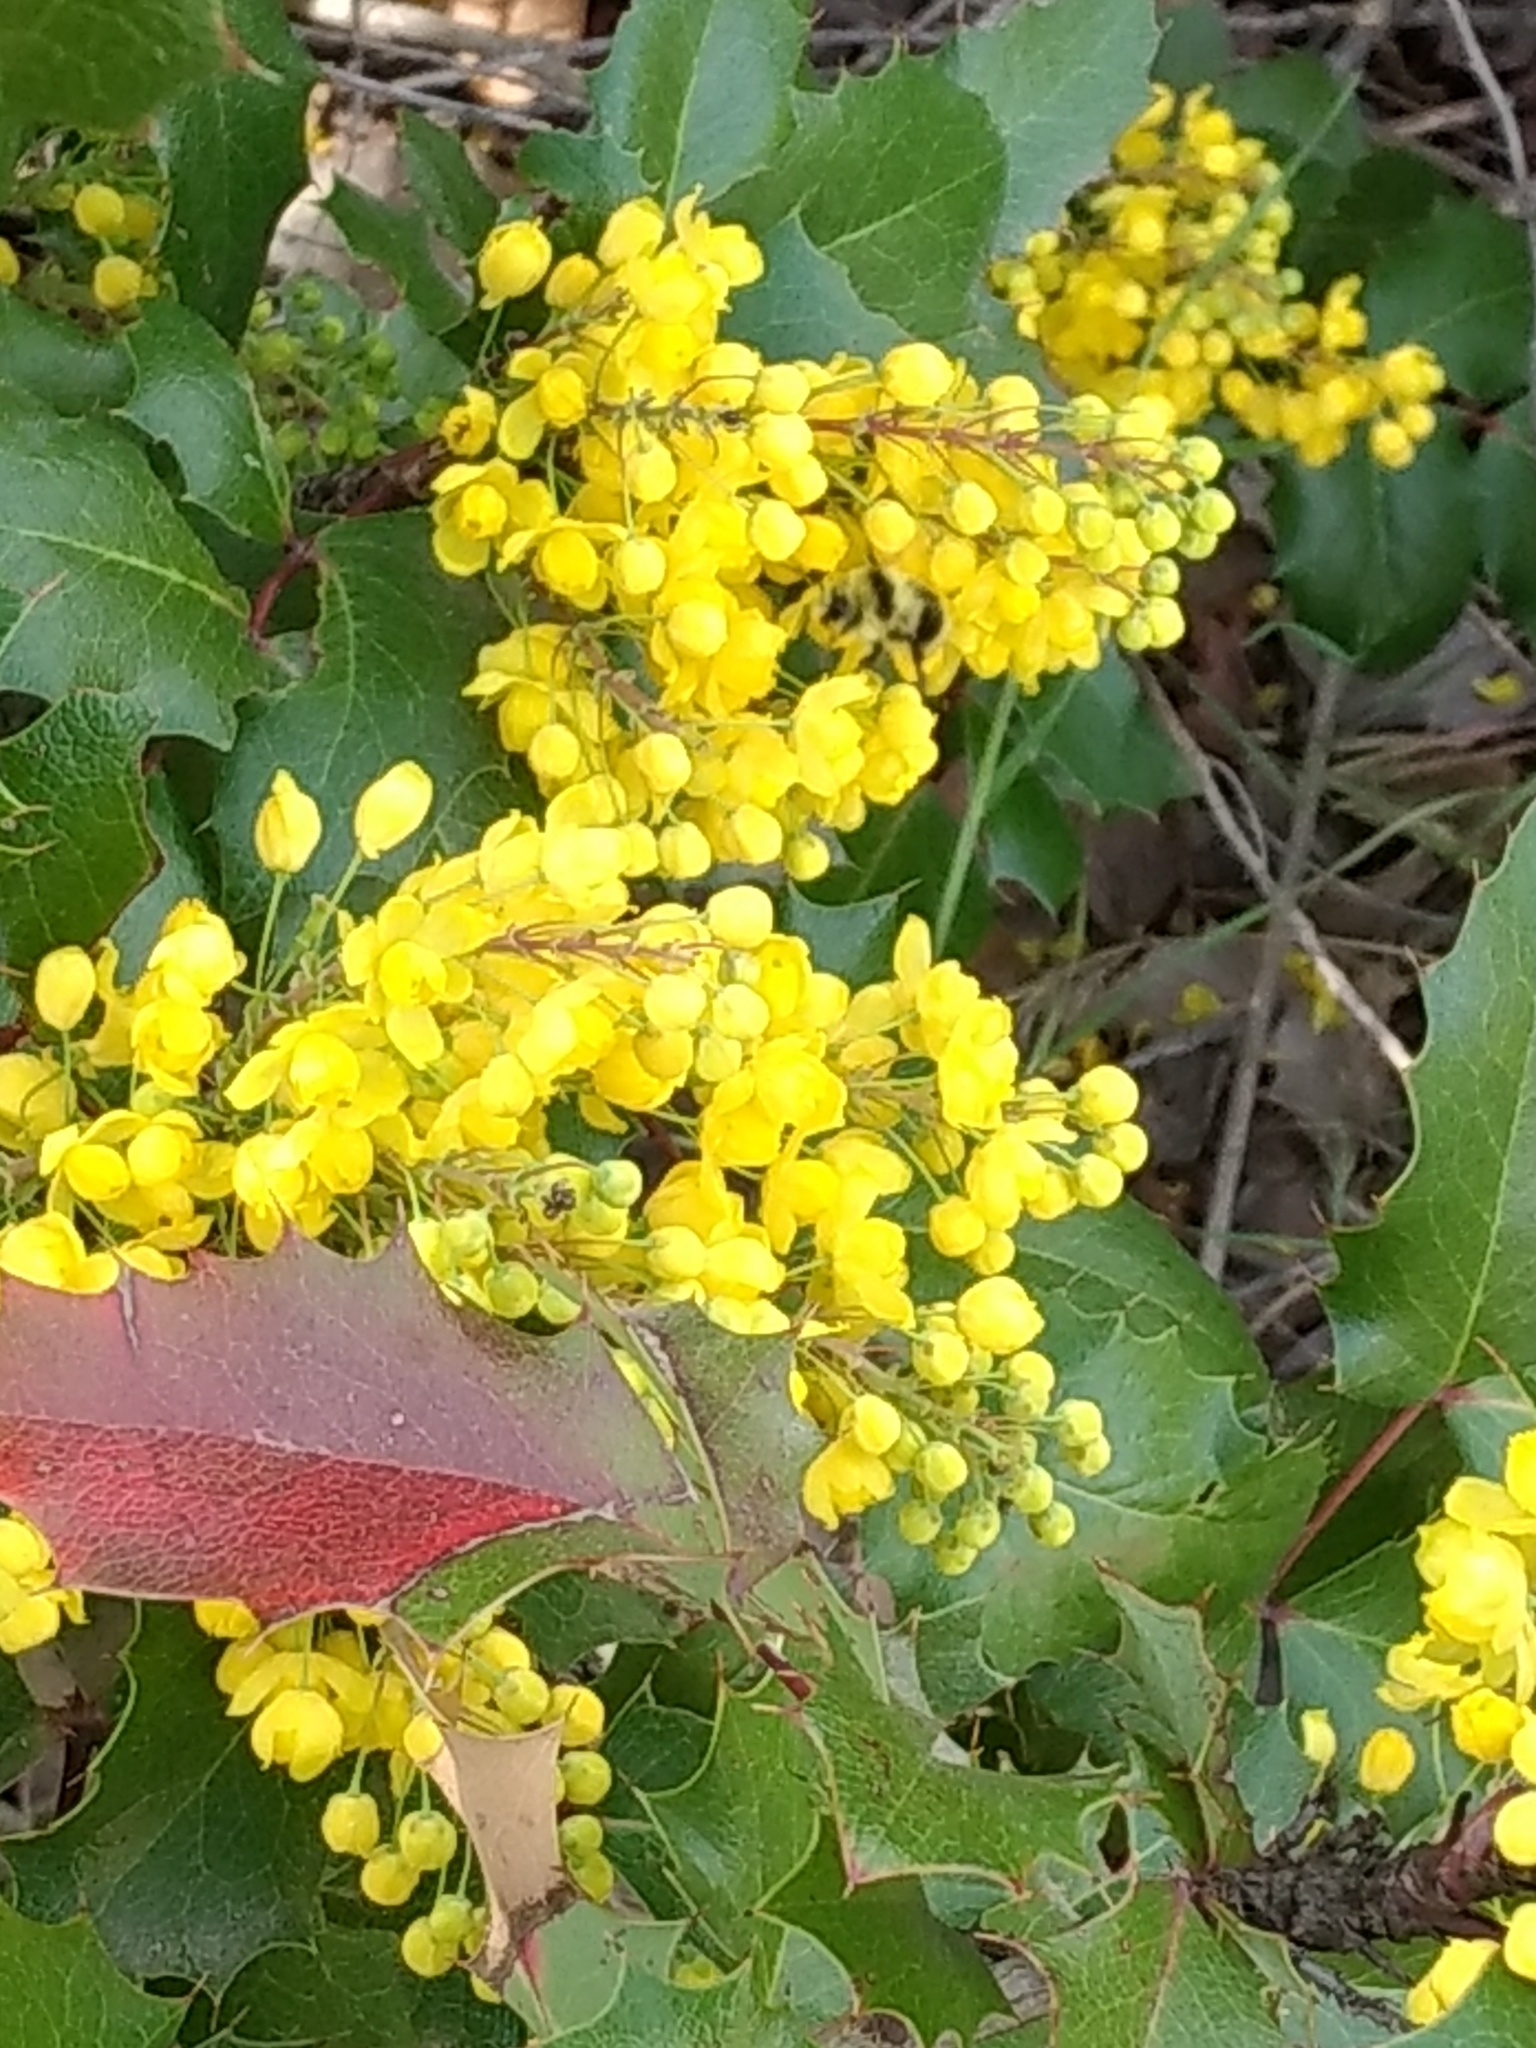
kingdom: Animalia
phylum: Arthropoda
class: Insecta
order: Hymenoptera
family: Apidae
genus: Bombus
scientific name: Bombus melanopygus
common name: Black tail bumble bee
